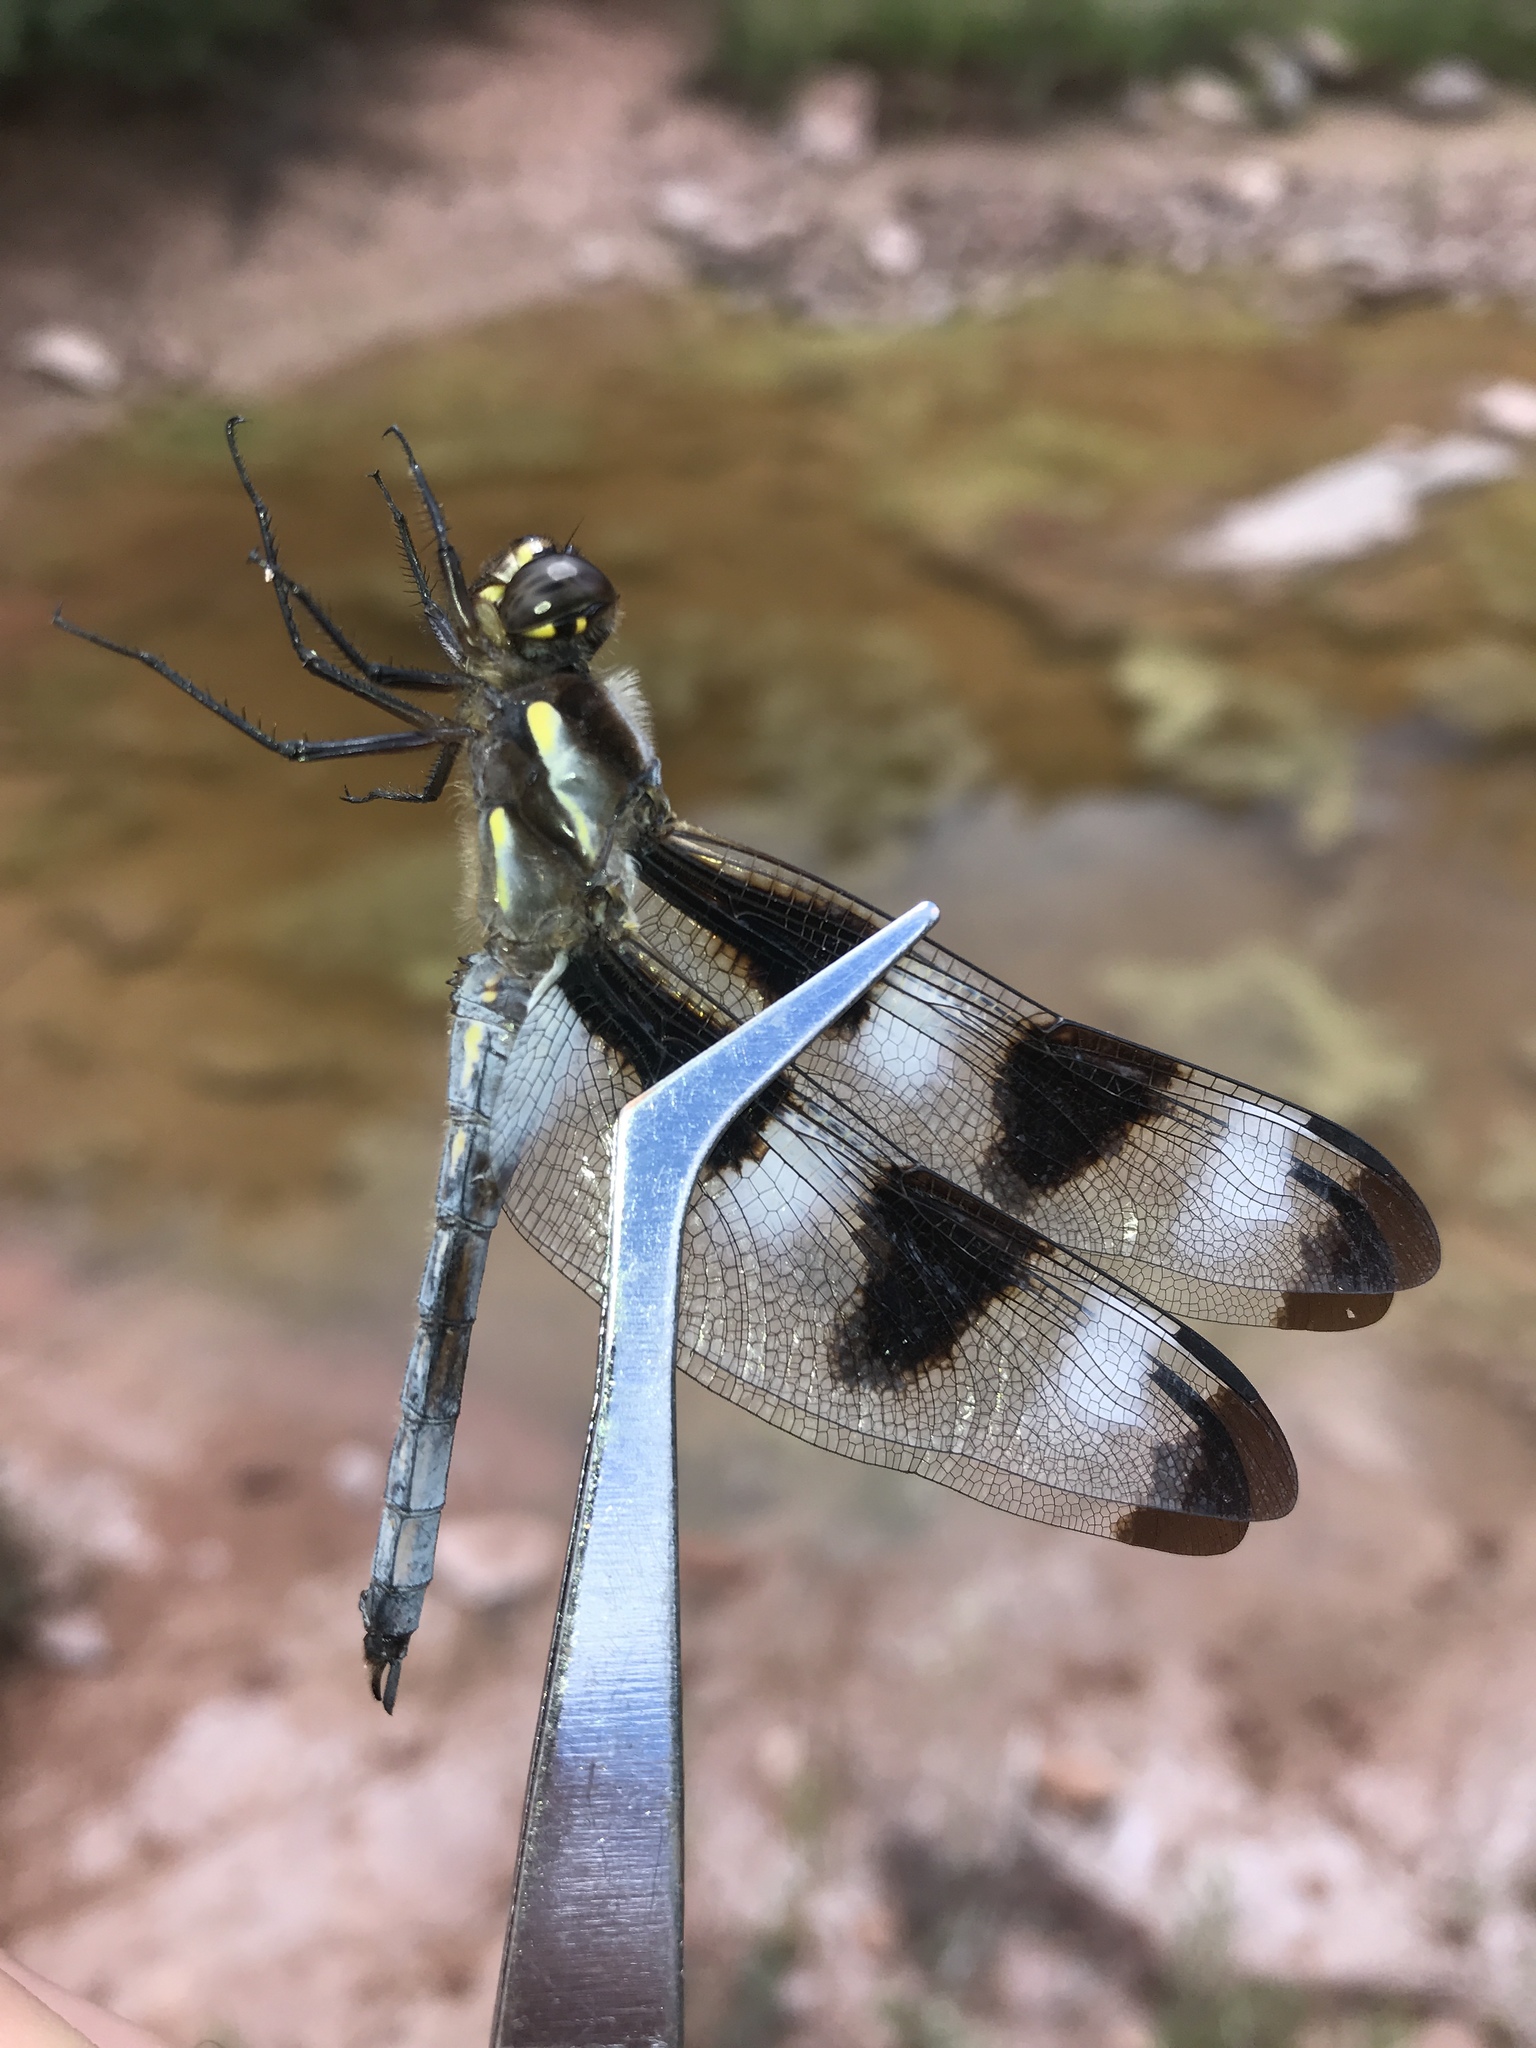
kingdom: Animalia
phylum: Arthropoda
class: Insecta
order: Odonata
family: Libellulidae
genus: Libellula
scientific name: Libellula pulchella
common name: Twelve-spotted skimmer
